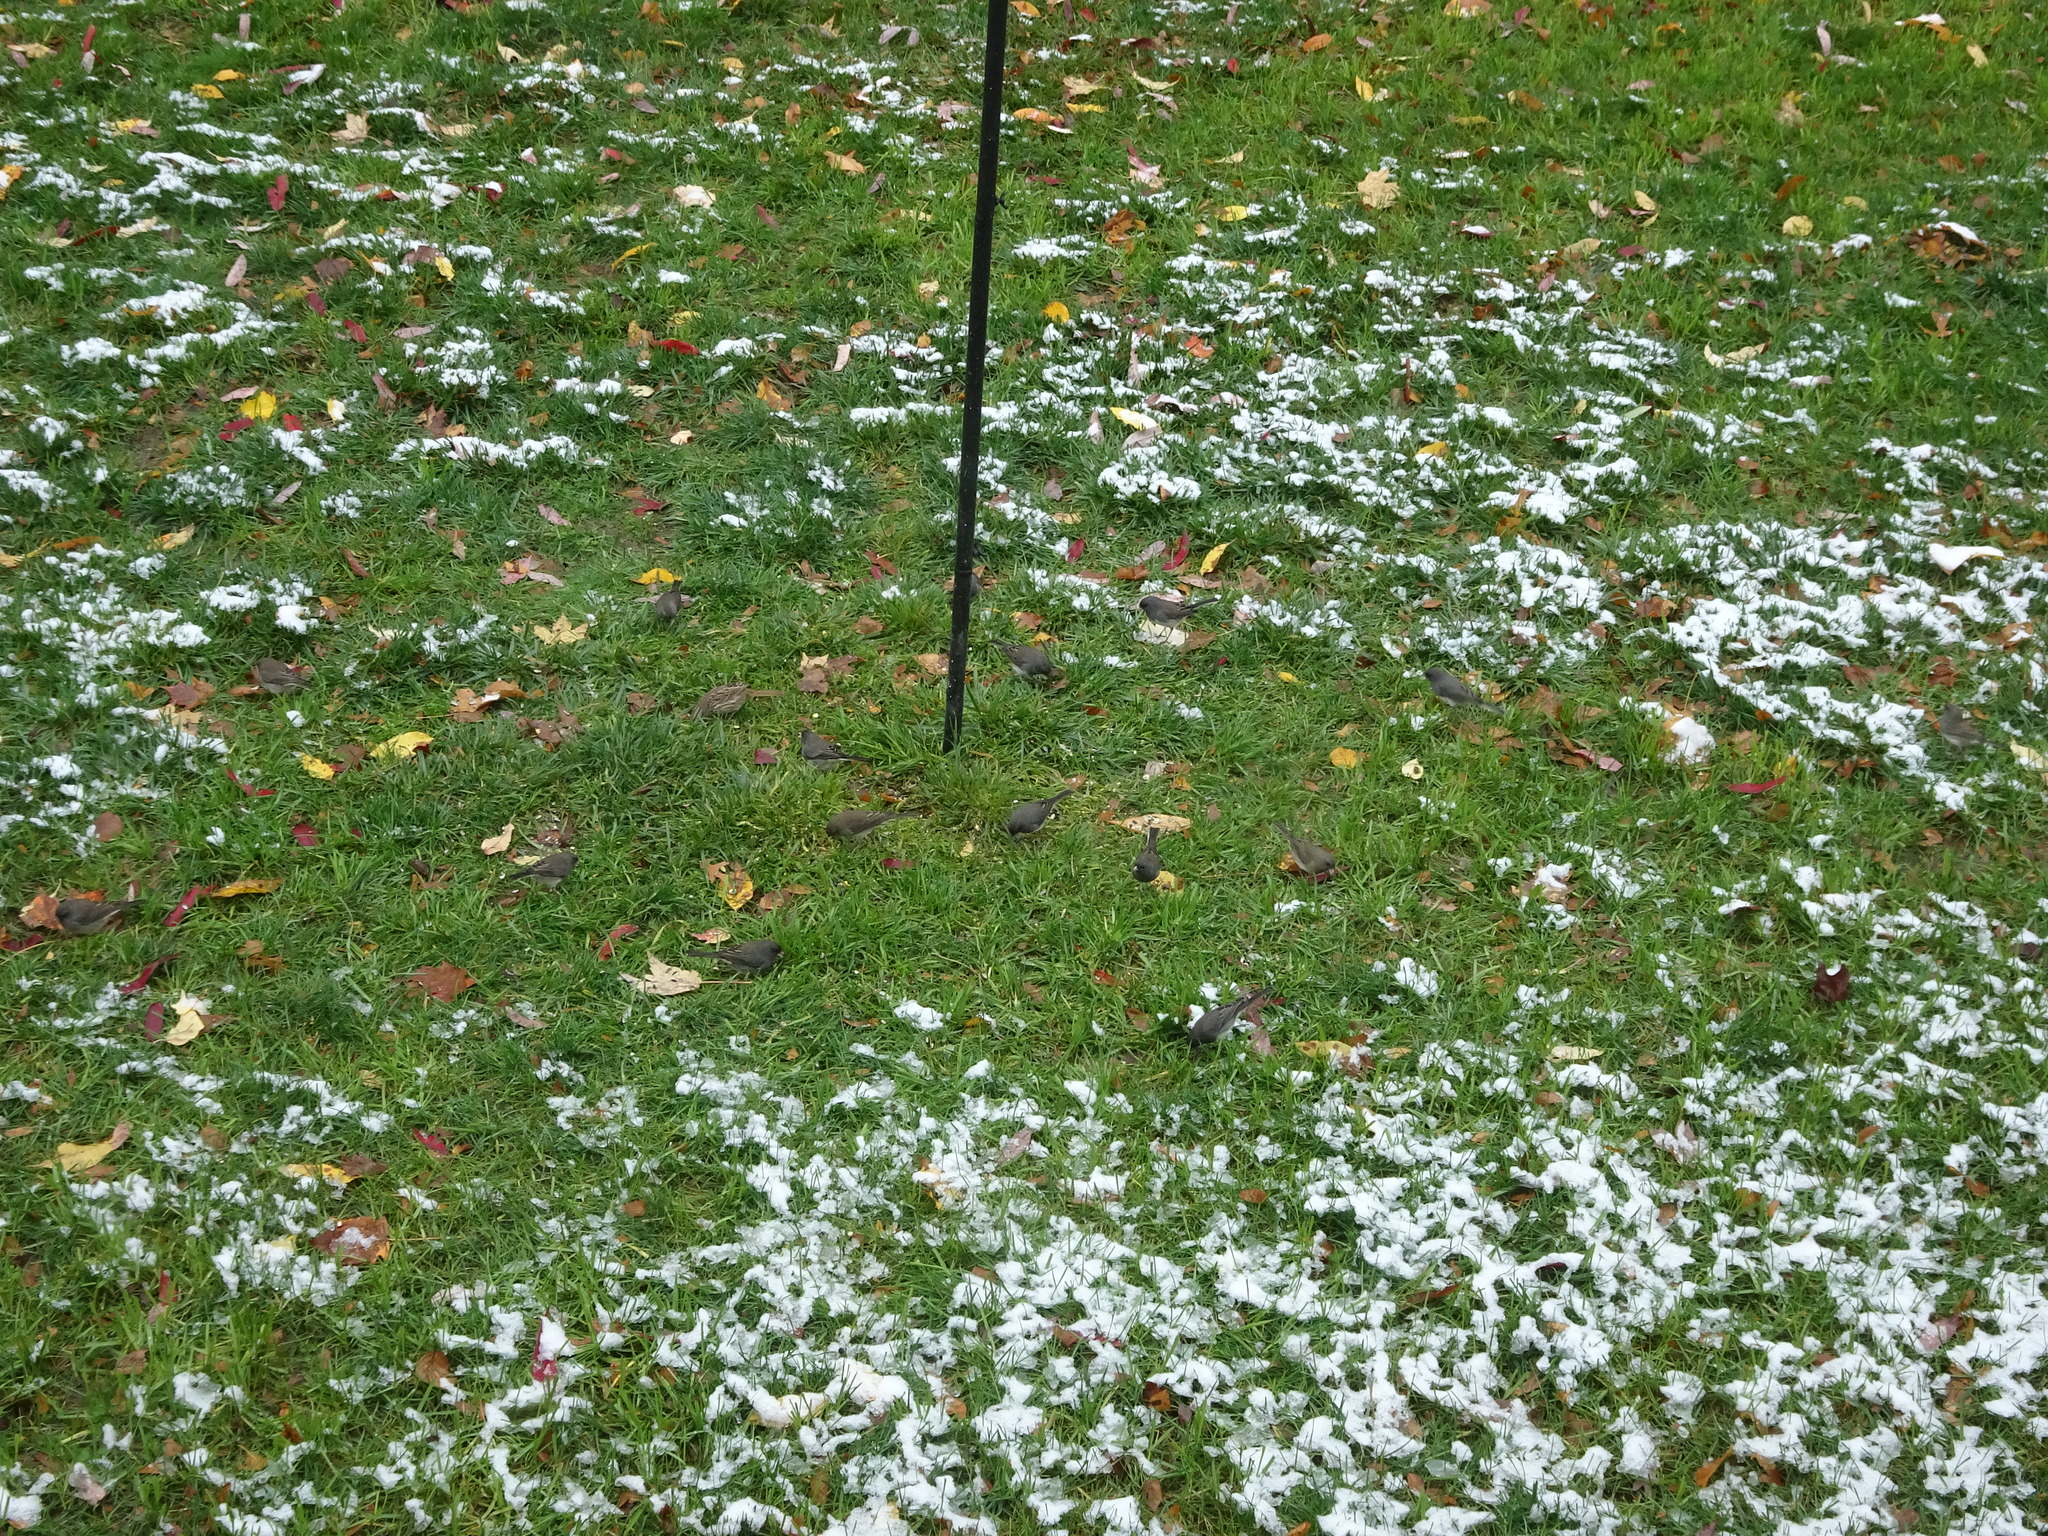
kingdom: Animalia
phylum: Chordata
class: Aves
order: Passeriformes
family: Passerellidae
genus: Junco
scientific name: Junco hyemalis
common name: Dark-eyed junco
